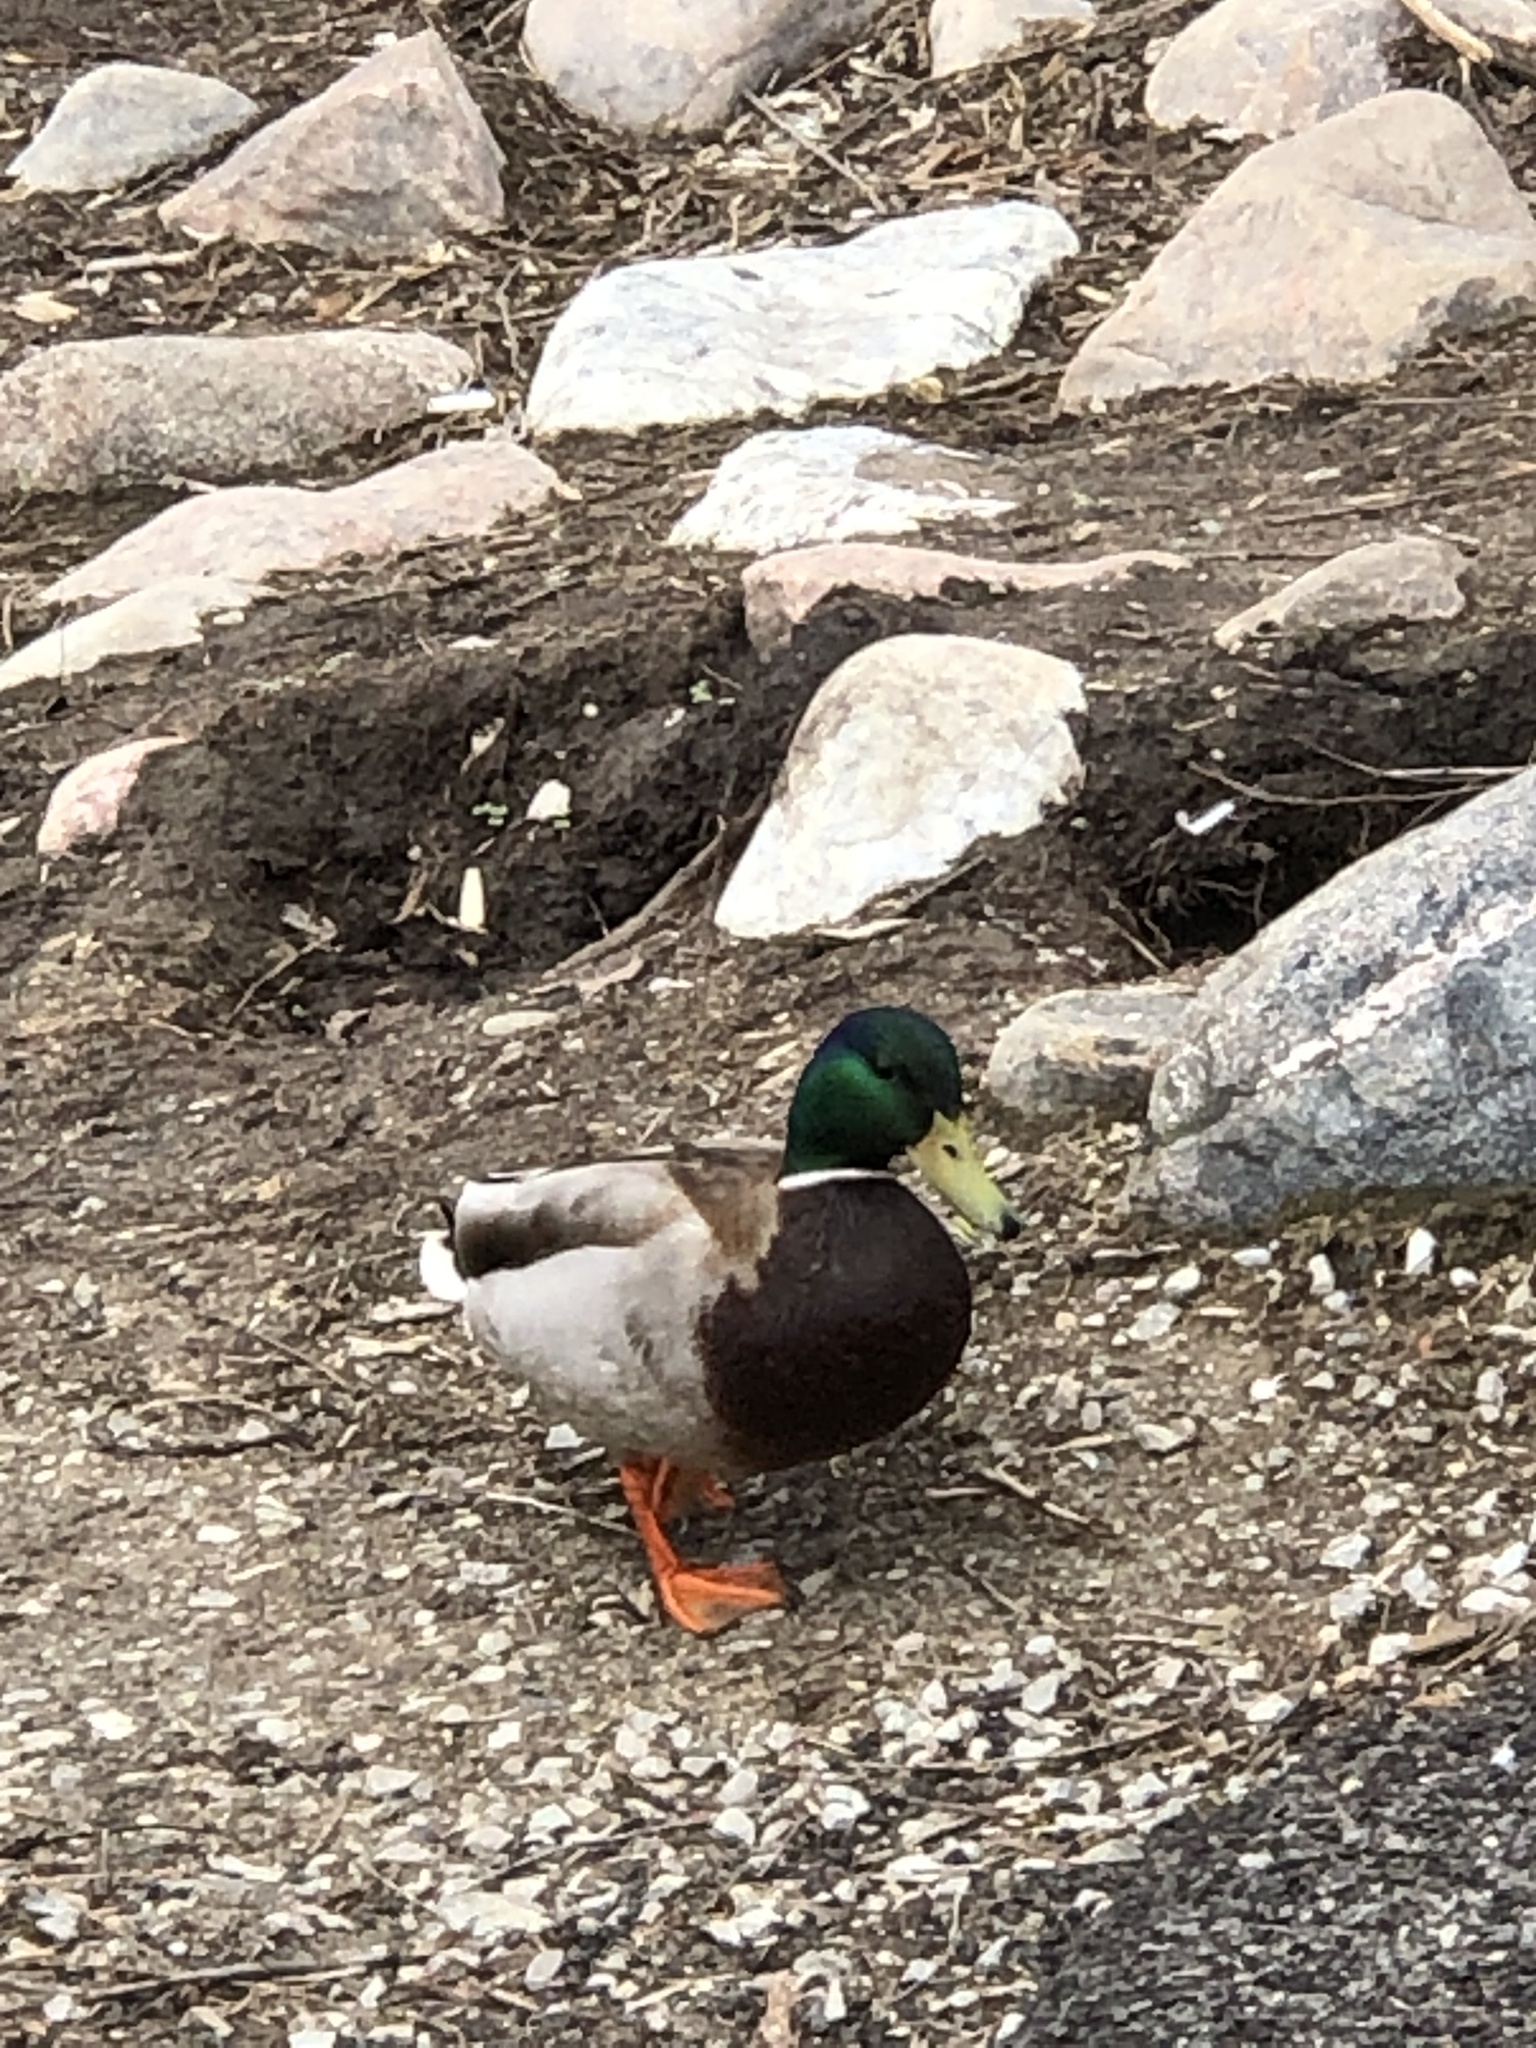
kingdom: Animalia
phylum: Chordata
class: Aves
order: Anseriformes
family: Anatidae
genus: Anas
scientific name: Anas platyrhynchos
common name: Mallard
